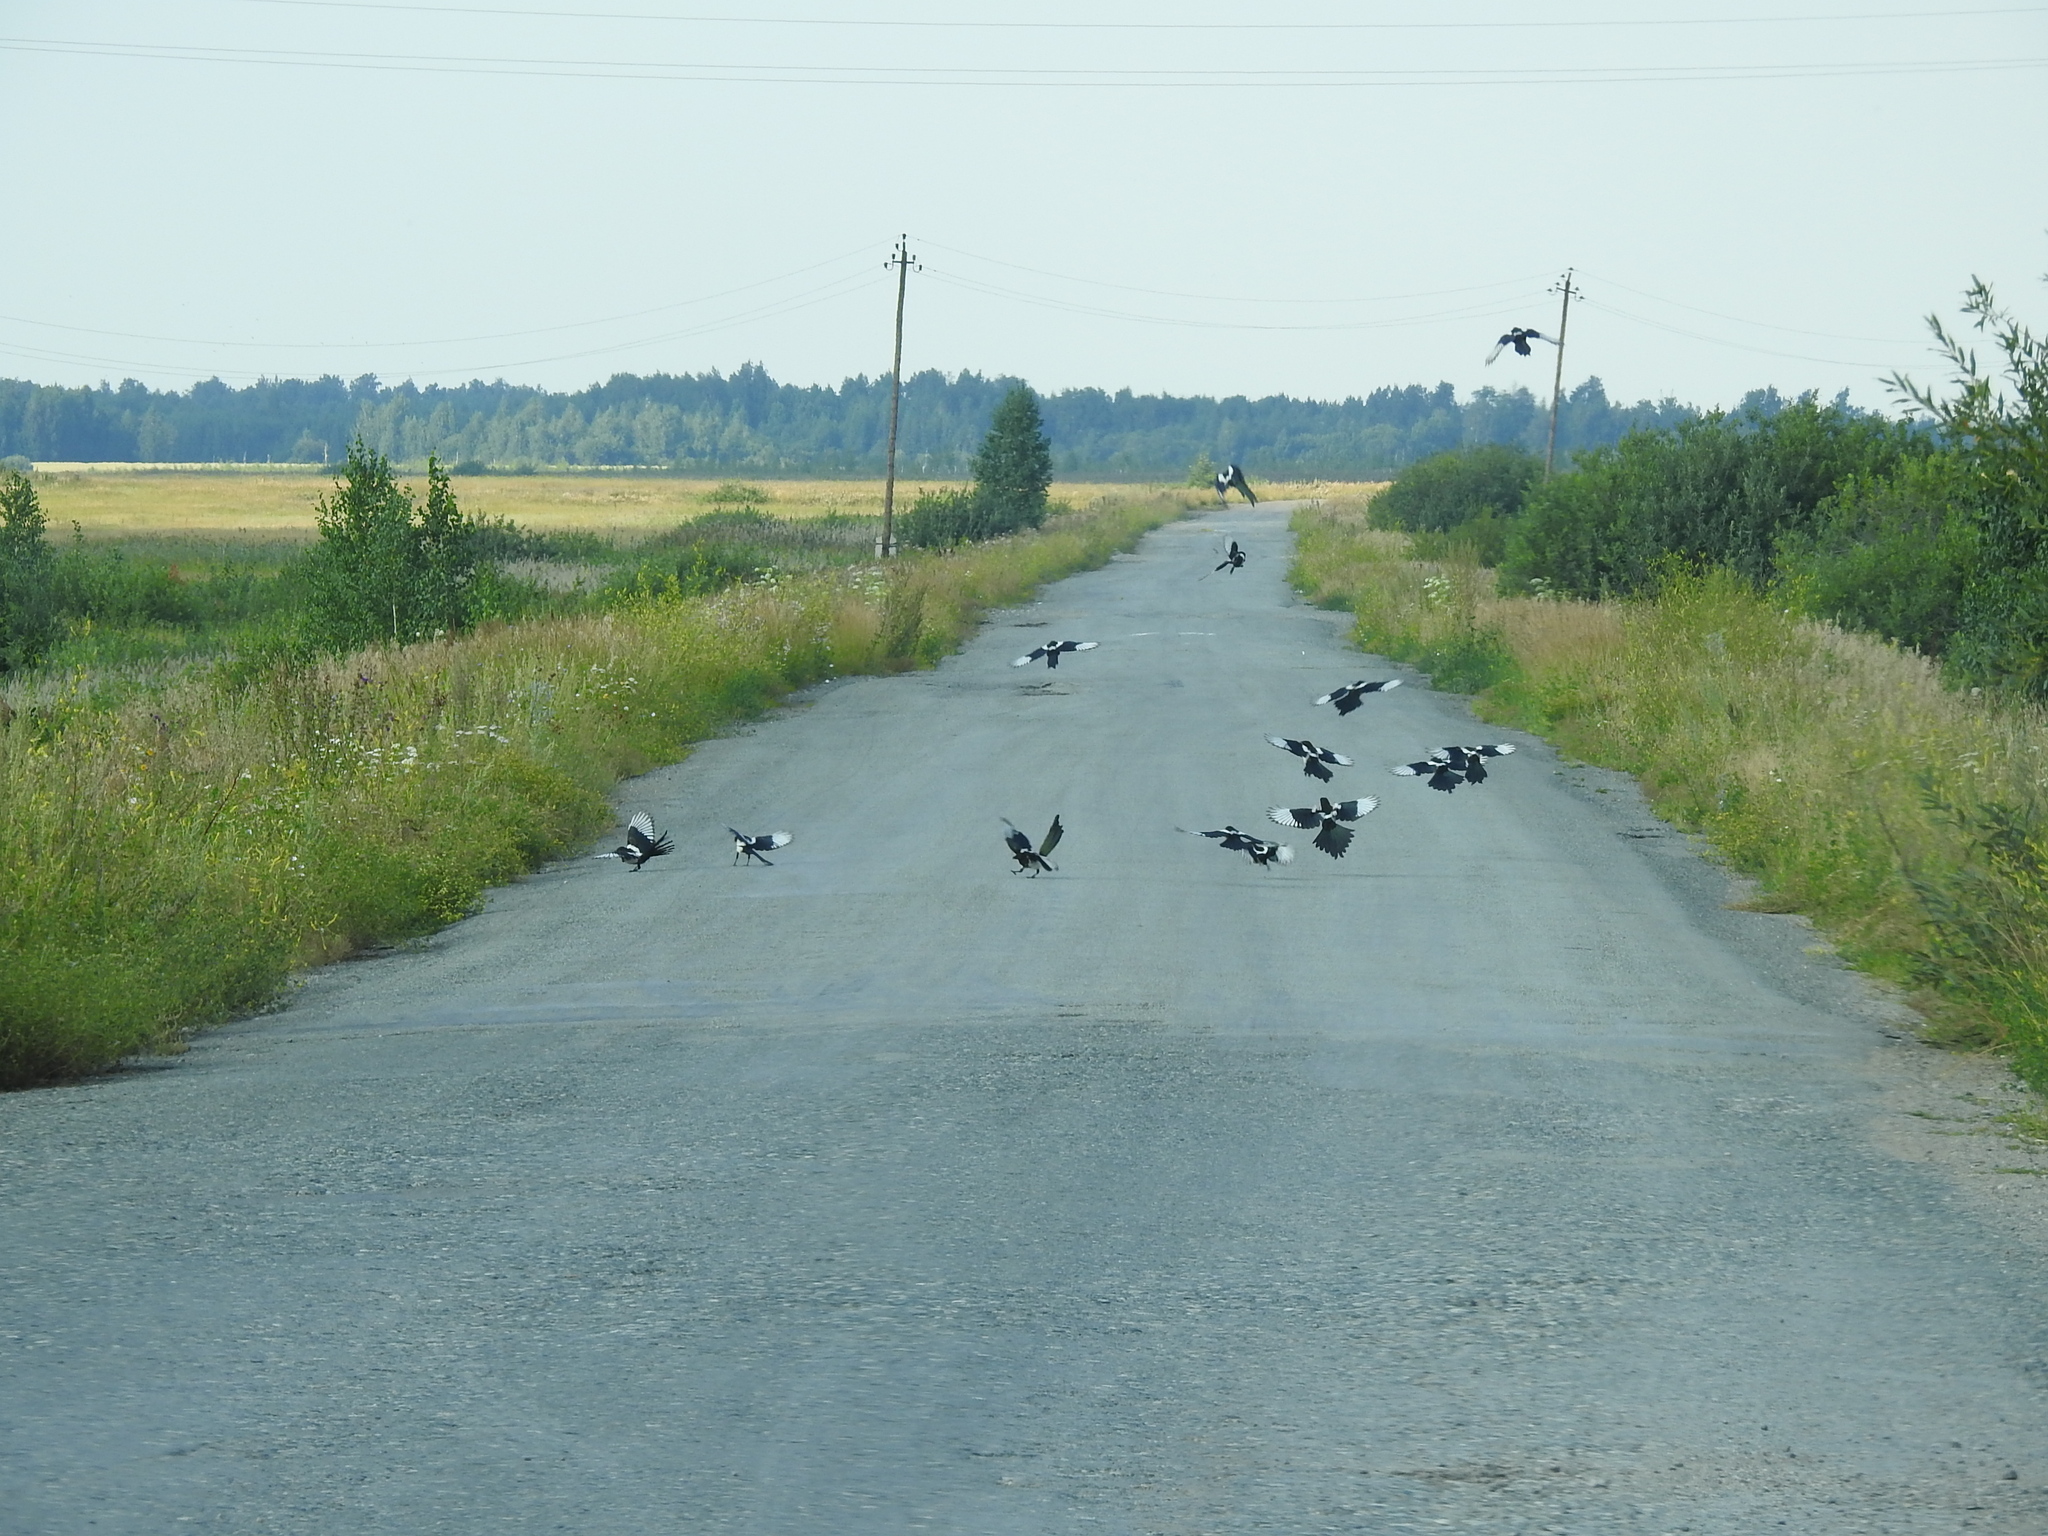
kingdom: Animalia
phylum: Chordata
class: Aves
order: Passeriformes
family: Corvidae
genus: Pica
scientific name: Pica pica
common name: Eurasian magpie
